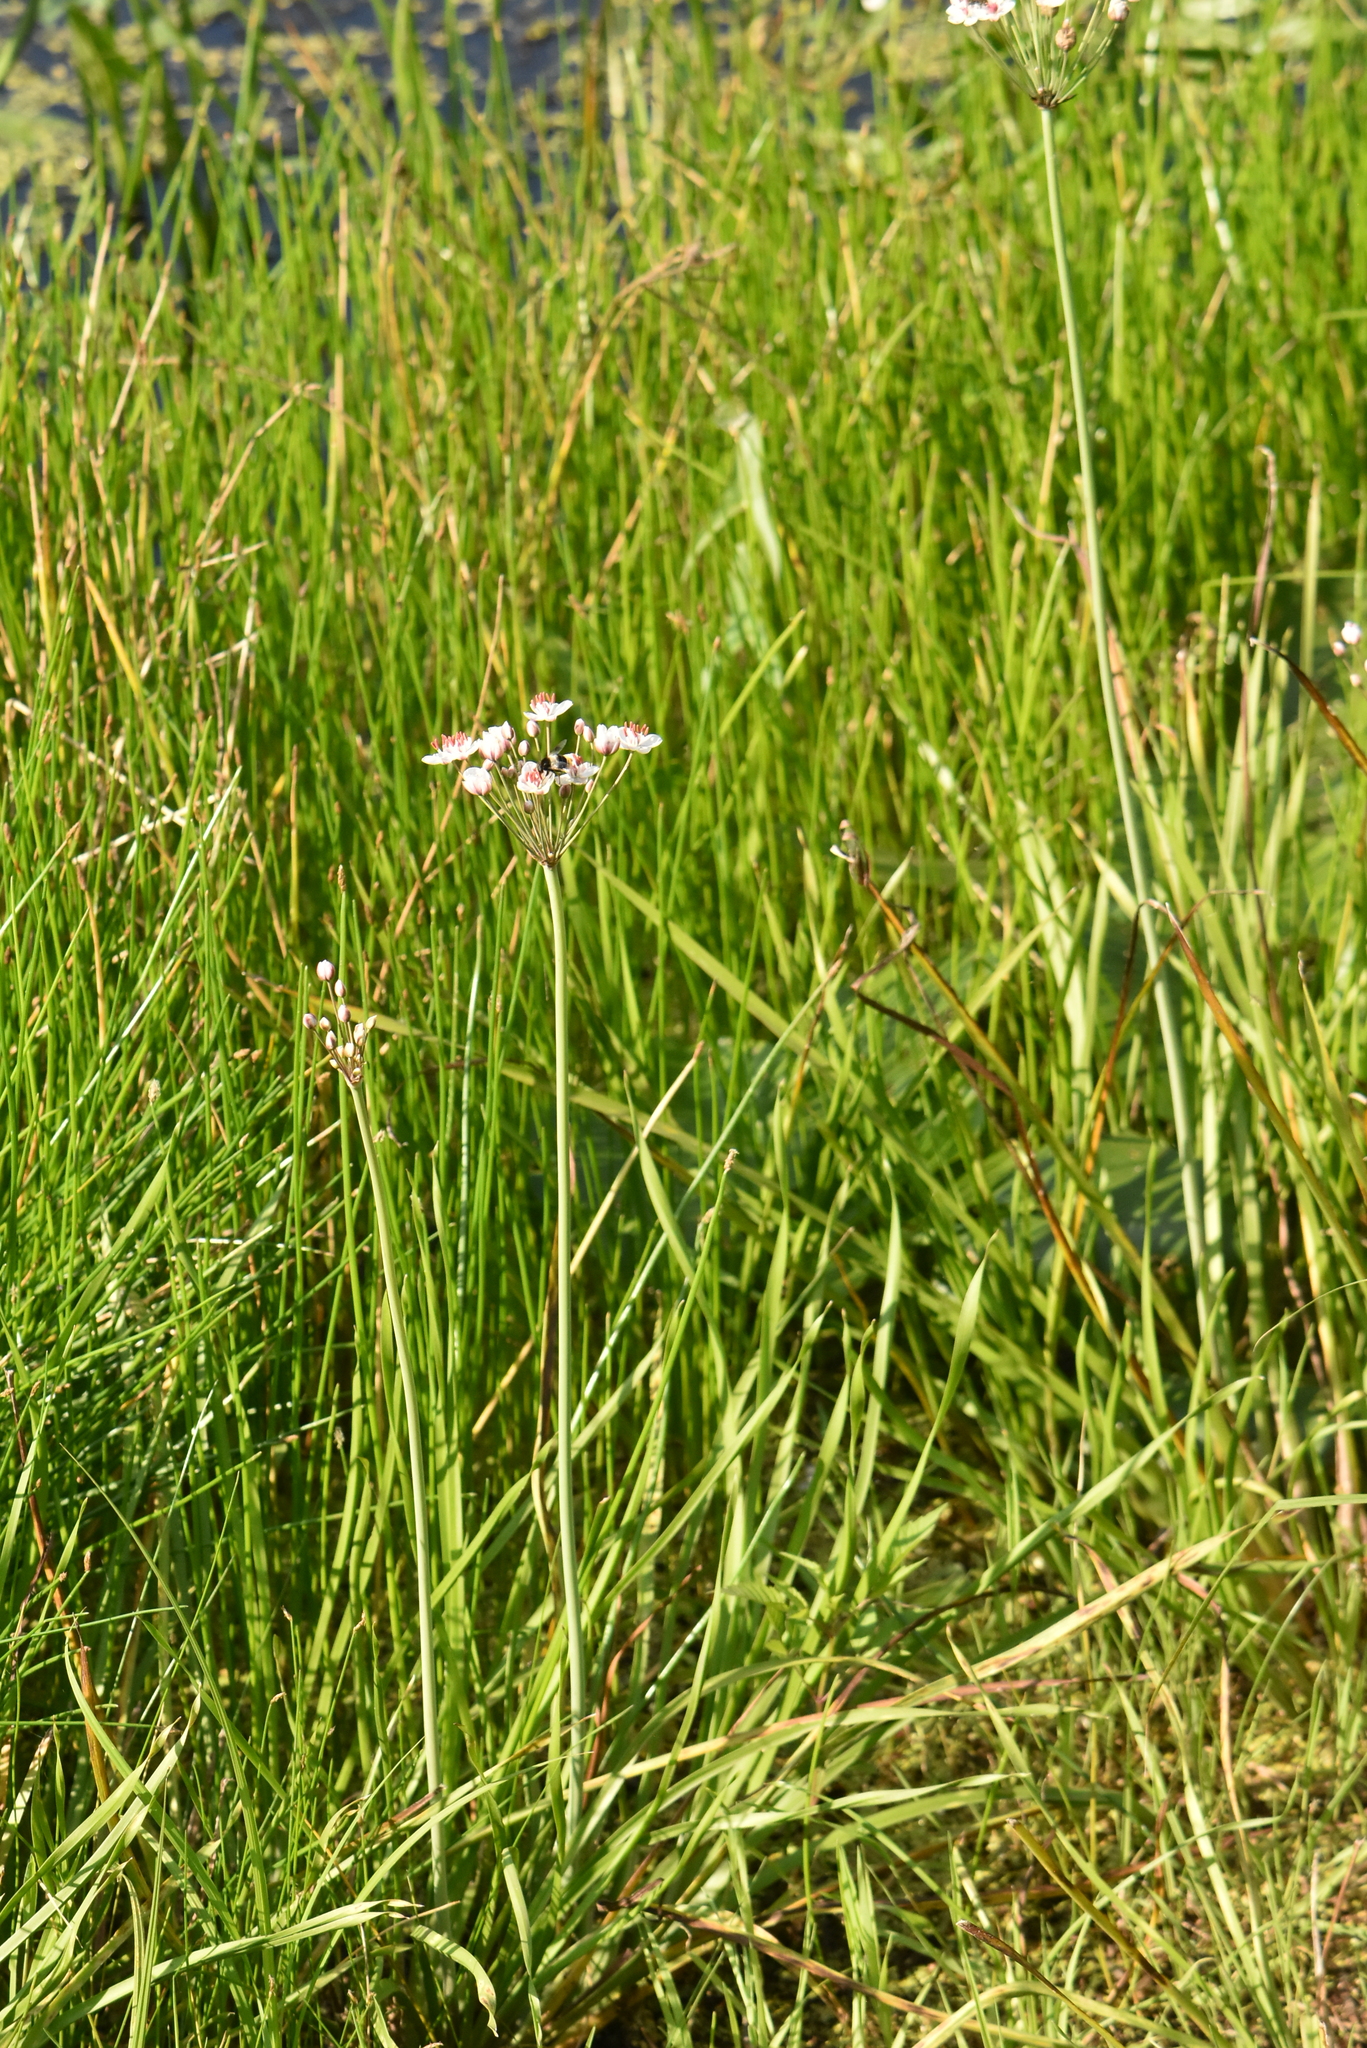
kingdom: Plantae
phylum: Tracheophyta
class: Liliopsida
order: Alismatales
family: Butomaceae
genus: Butomus
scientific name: Butomus umbellatus
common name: Flowering-rush
